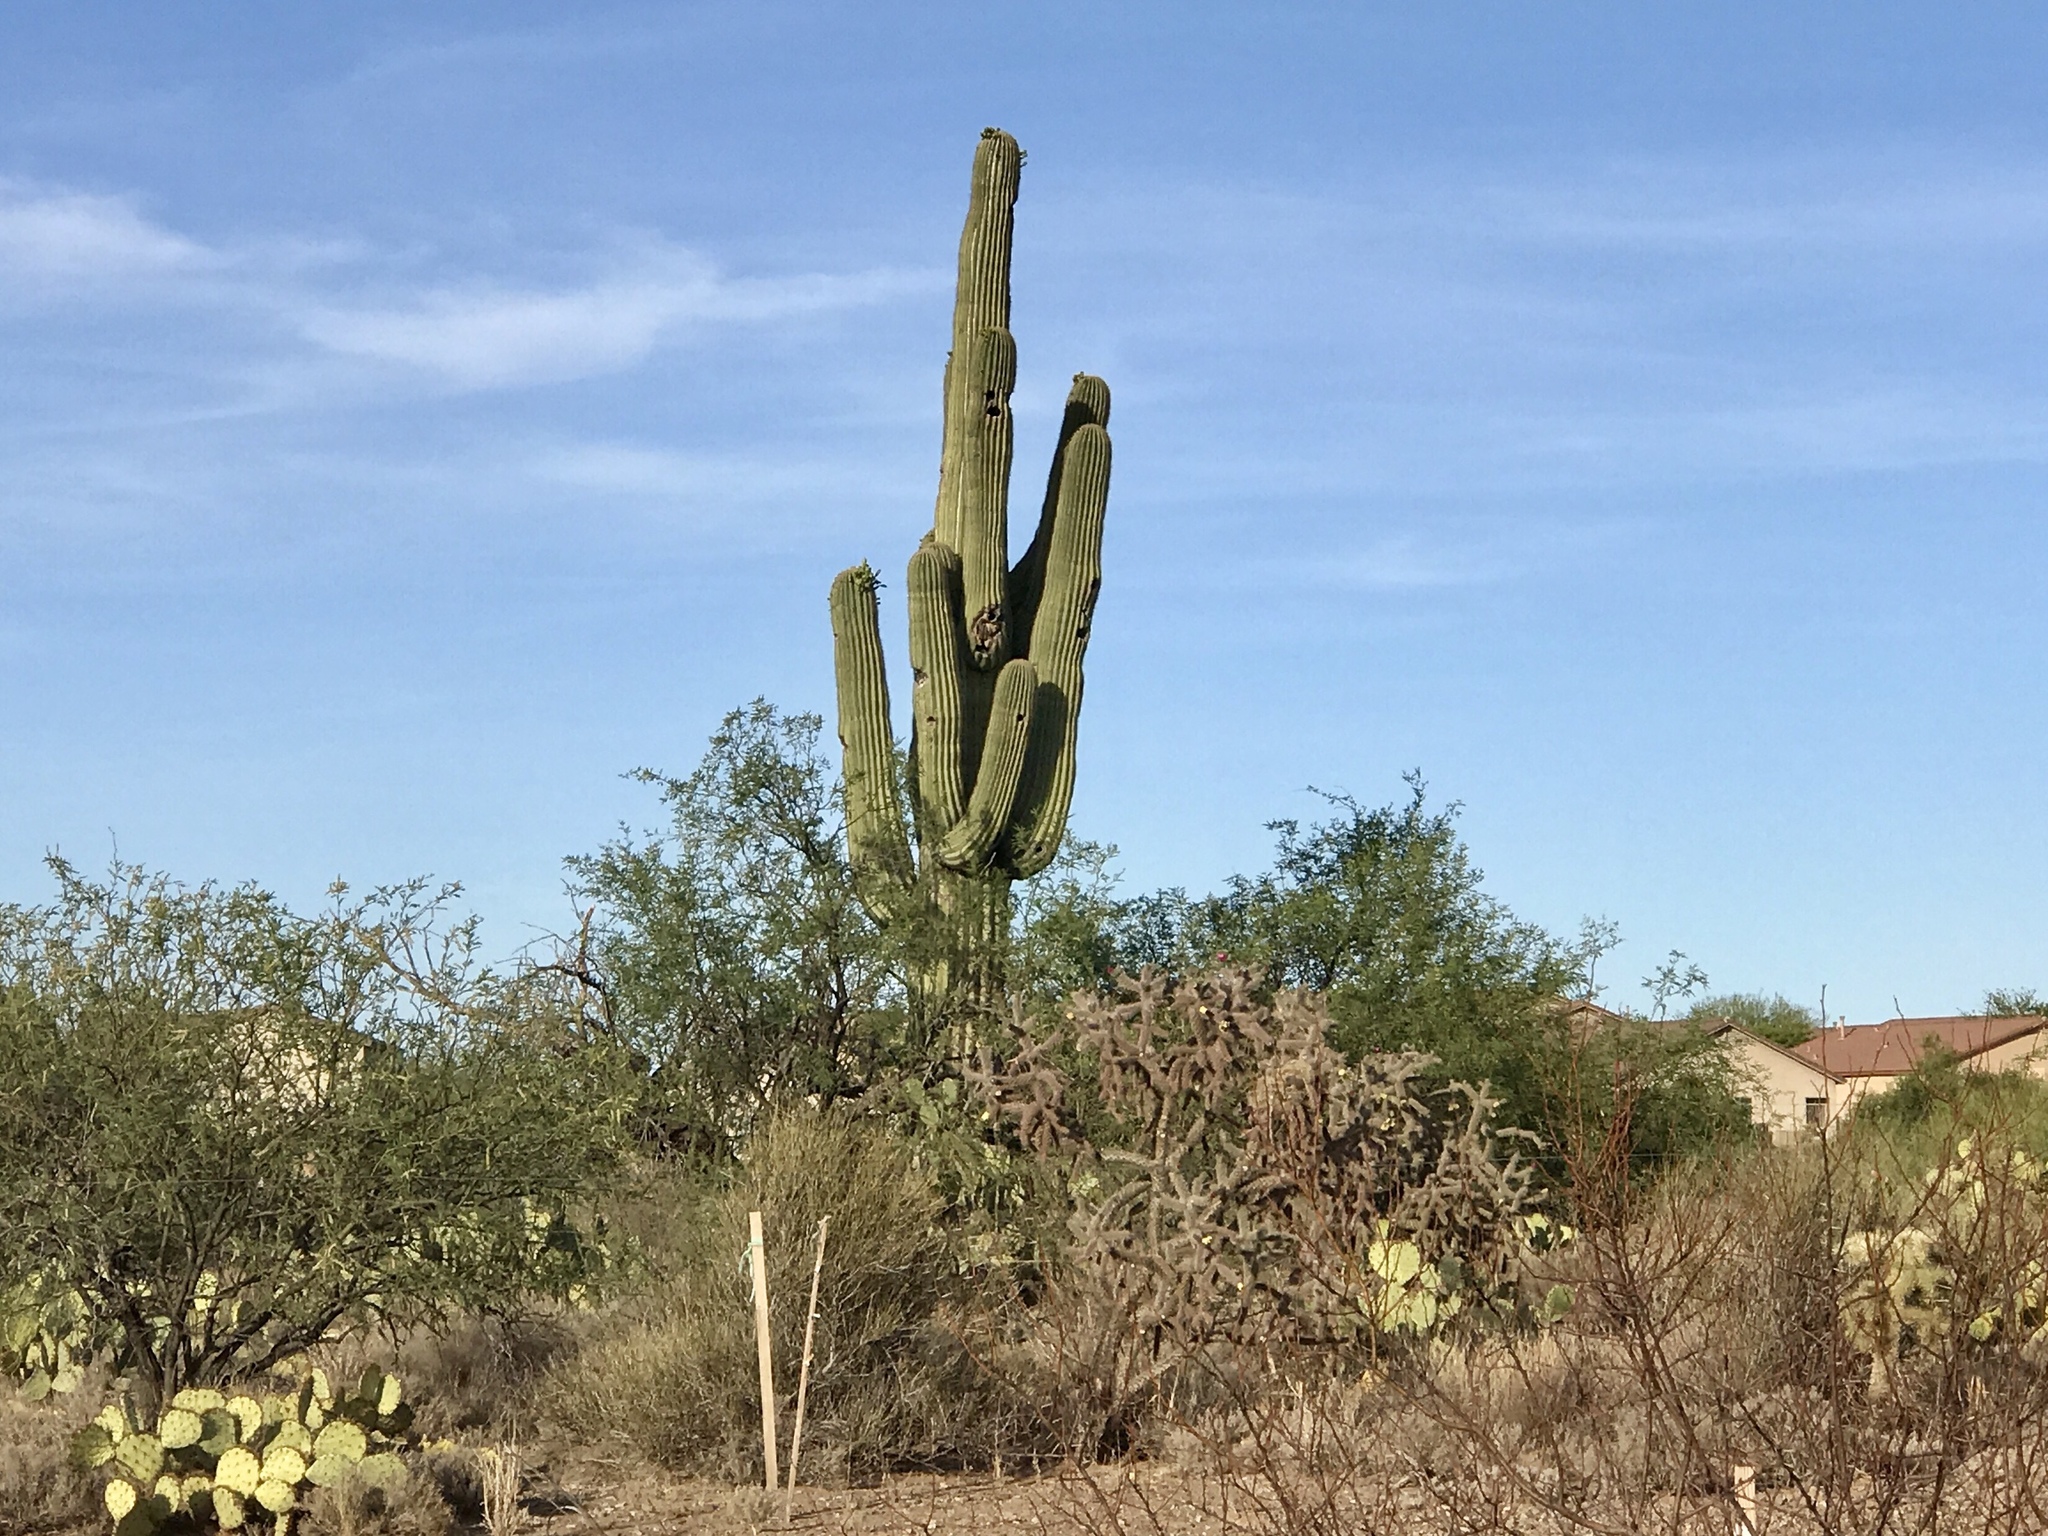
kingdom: Plantae
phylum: Tracheophyta
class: Magnoliopsida
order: Caryophyllales
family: Cactaceae
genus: Carnegiea
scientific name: Carnegiea gigantea
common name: Saguaro
